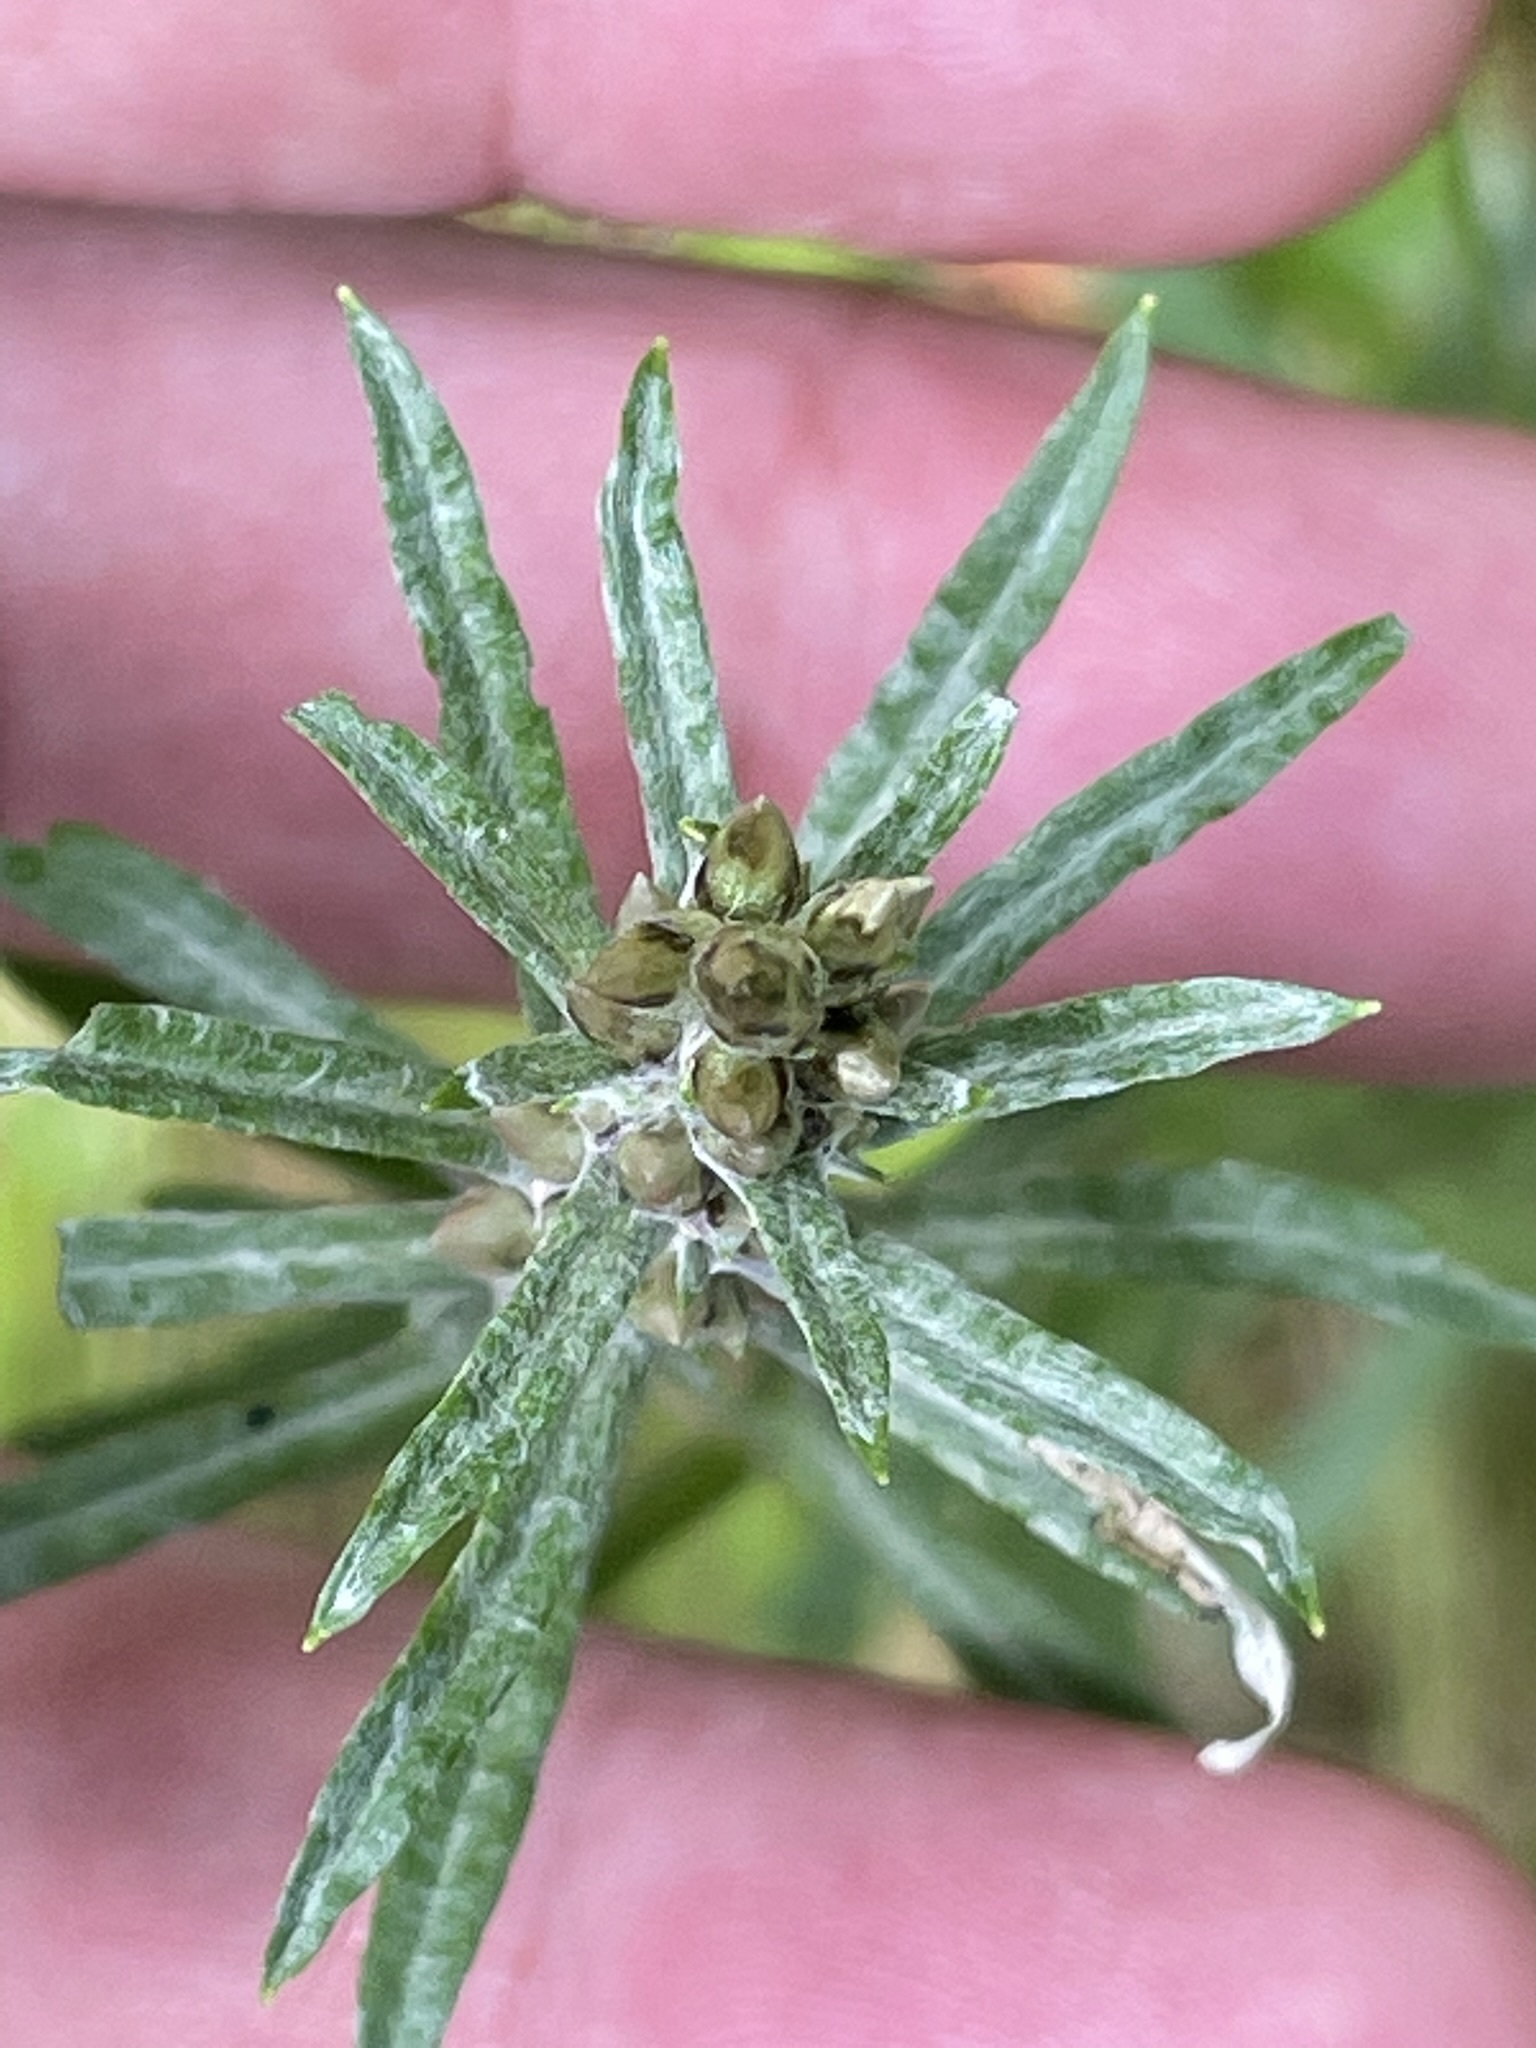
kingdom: Plantae
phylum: Tracheophyta
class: Magnoliopsida
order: Asterales
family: Asteraceae
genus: Omalotheca
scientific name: Omalotheca sylvatica
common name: Heath cudweed
